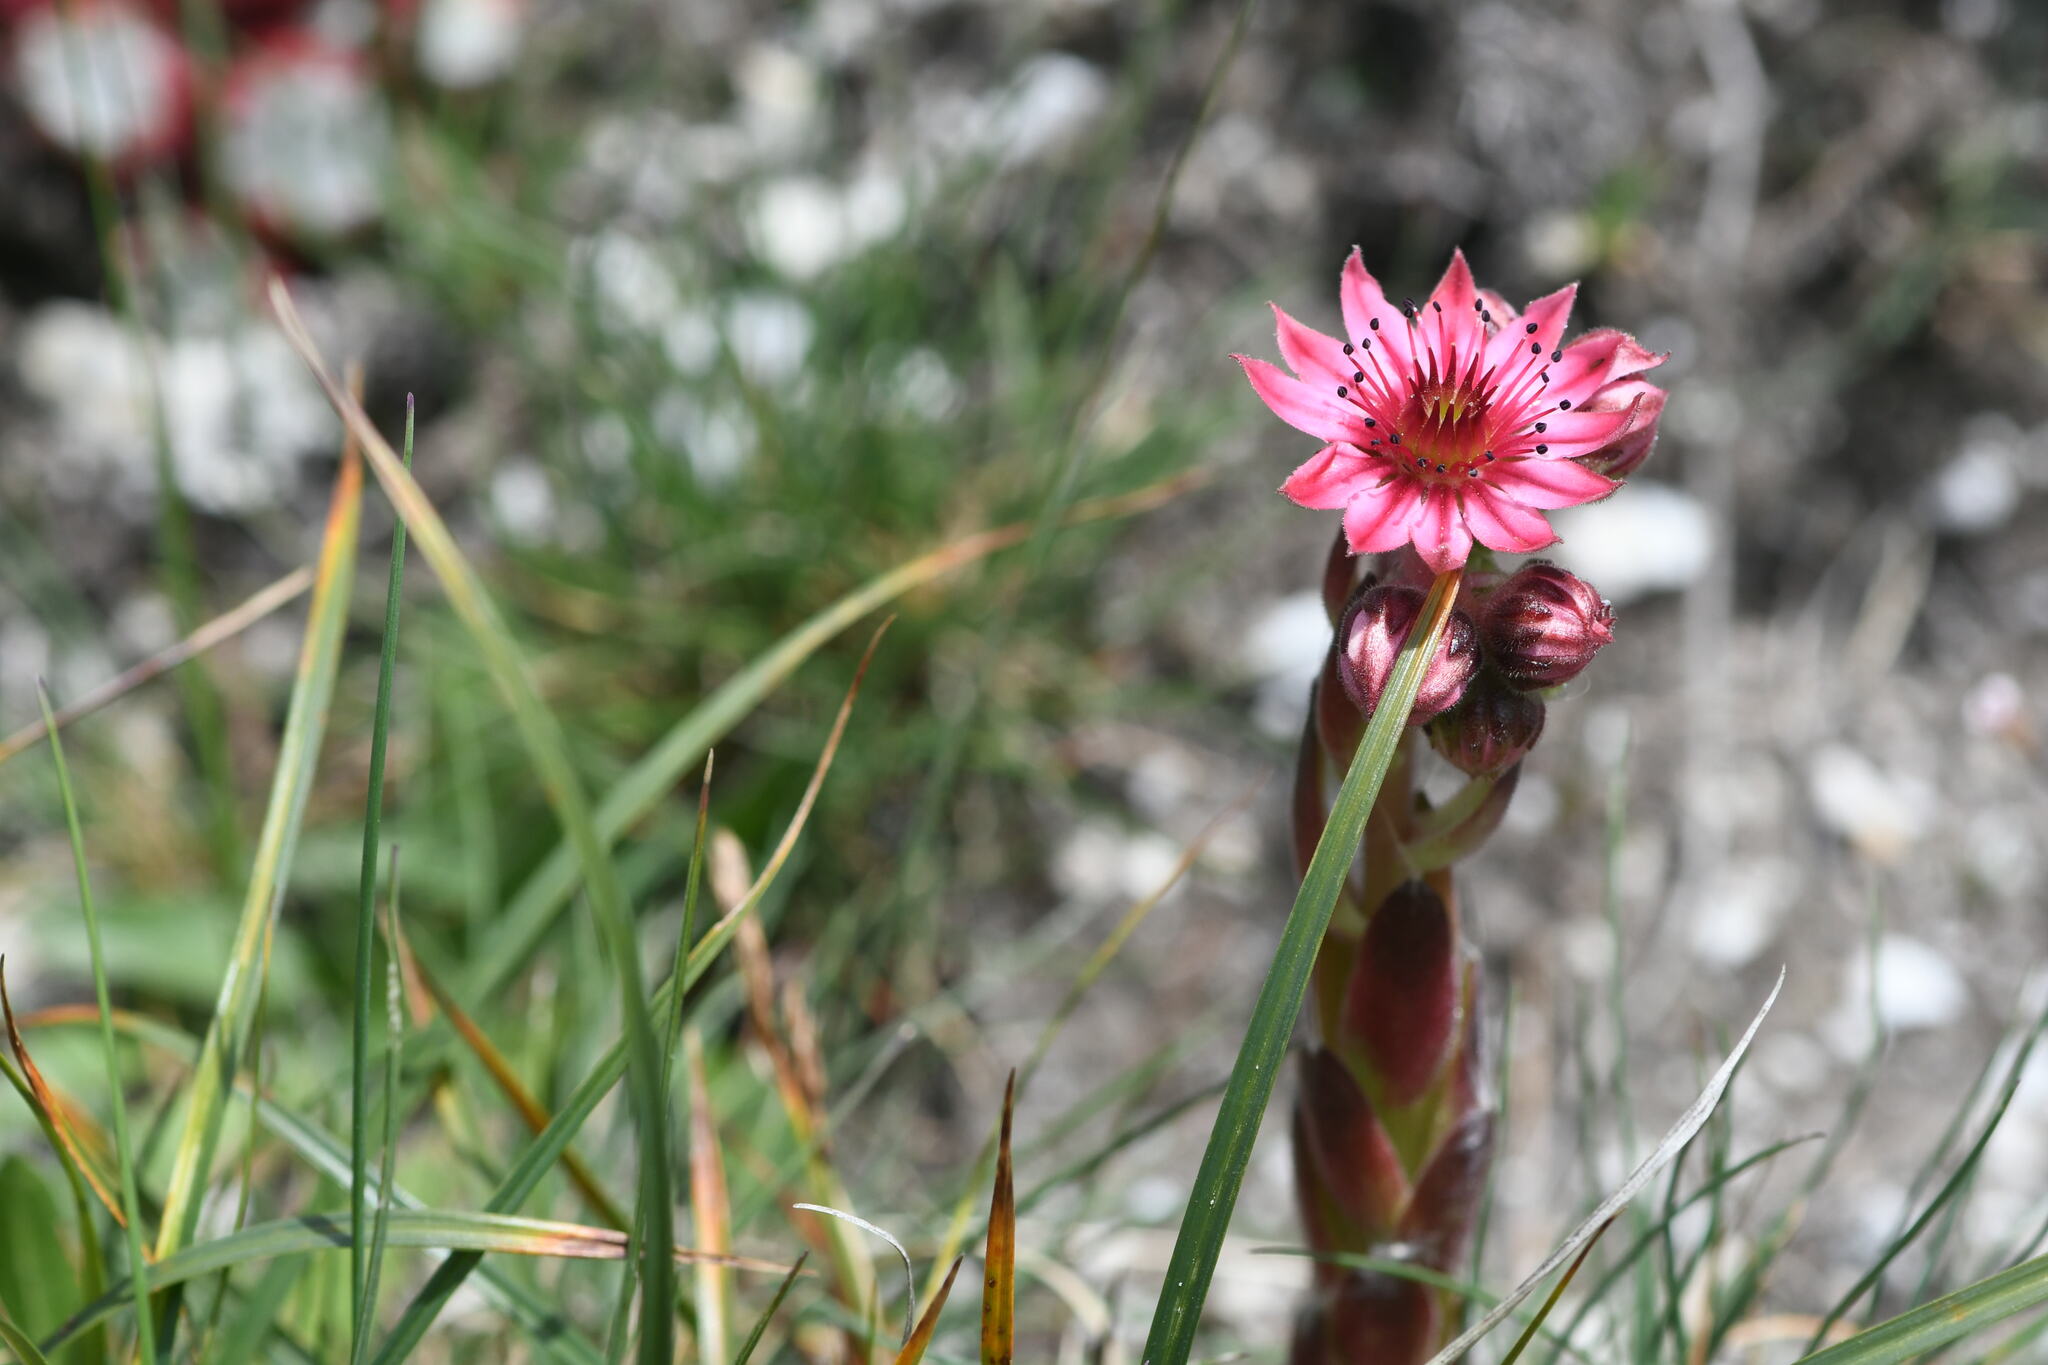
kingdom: Plantae
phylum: Tracheophyta
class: Magnoliopsida
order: Saxifragales
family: Crassulaceae
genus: Sempervivum
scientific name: Sempervivum arachnoideum
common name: Cobweb house-leek
